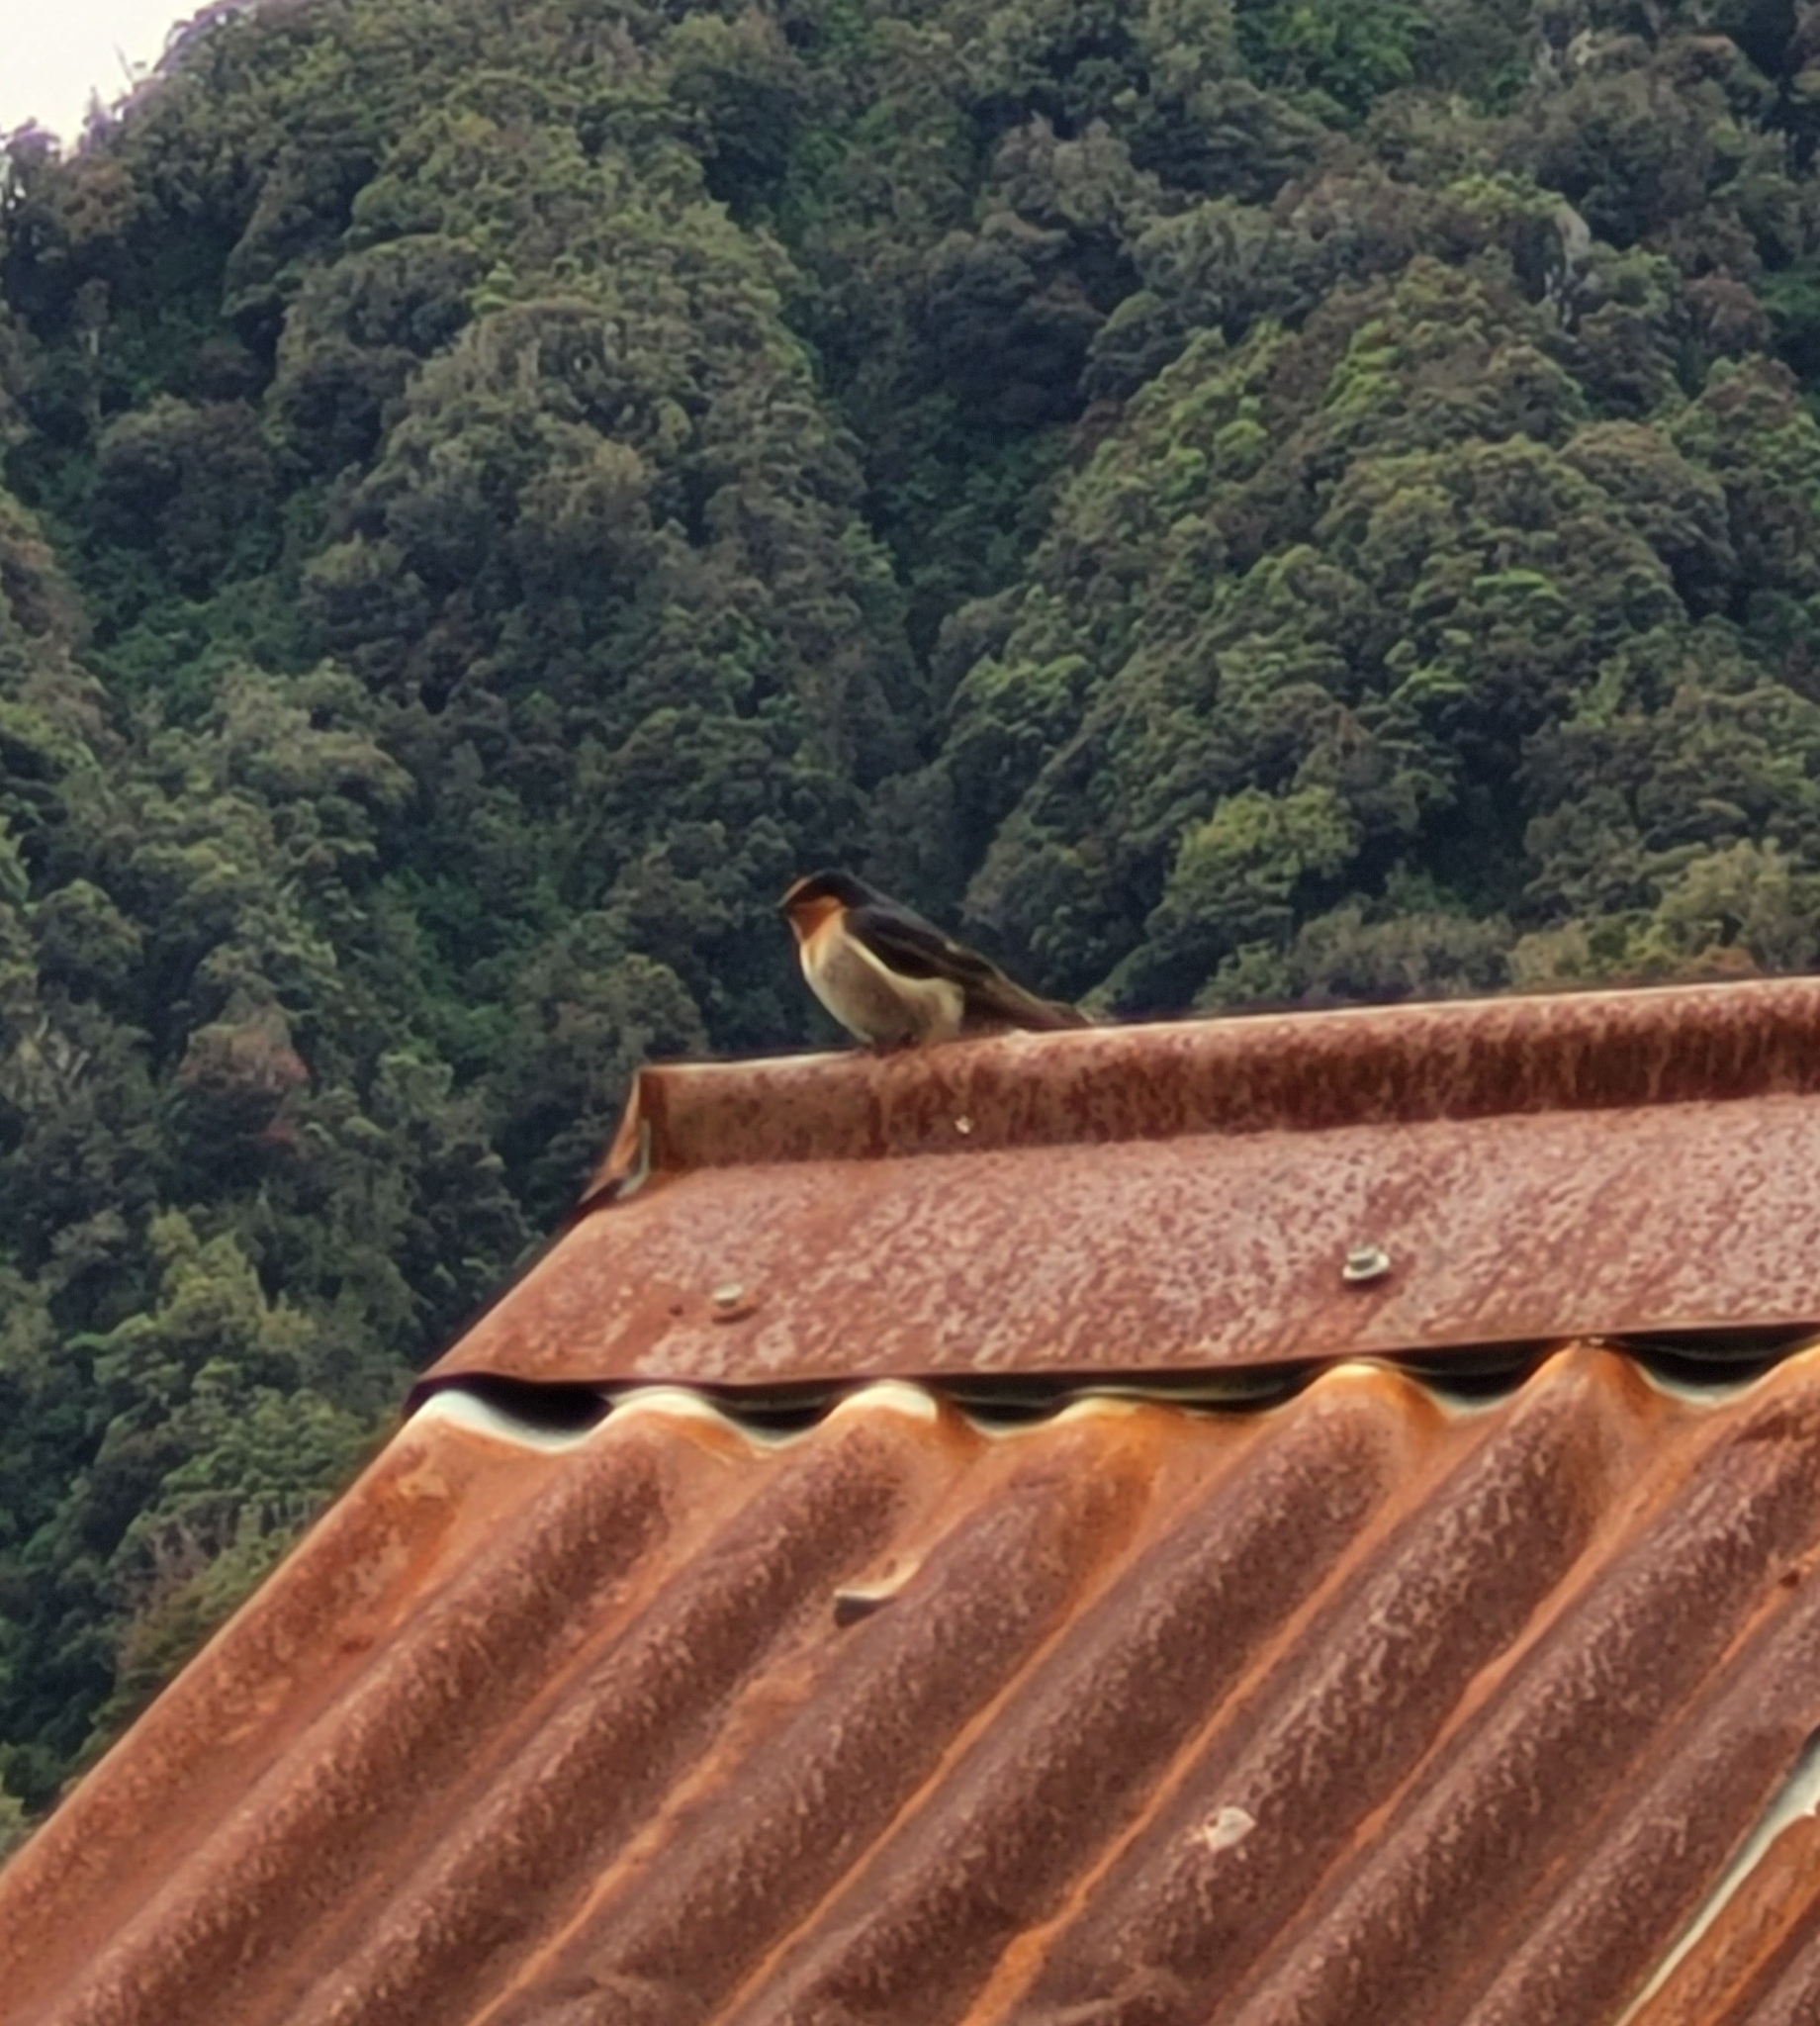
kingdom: Animalia
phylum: Chordata
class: Aves
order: Passeriformes
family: Hirundinidae
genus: Hirundo
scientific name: Hirundo neoxena
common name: Welcome swallow
